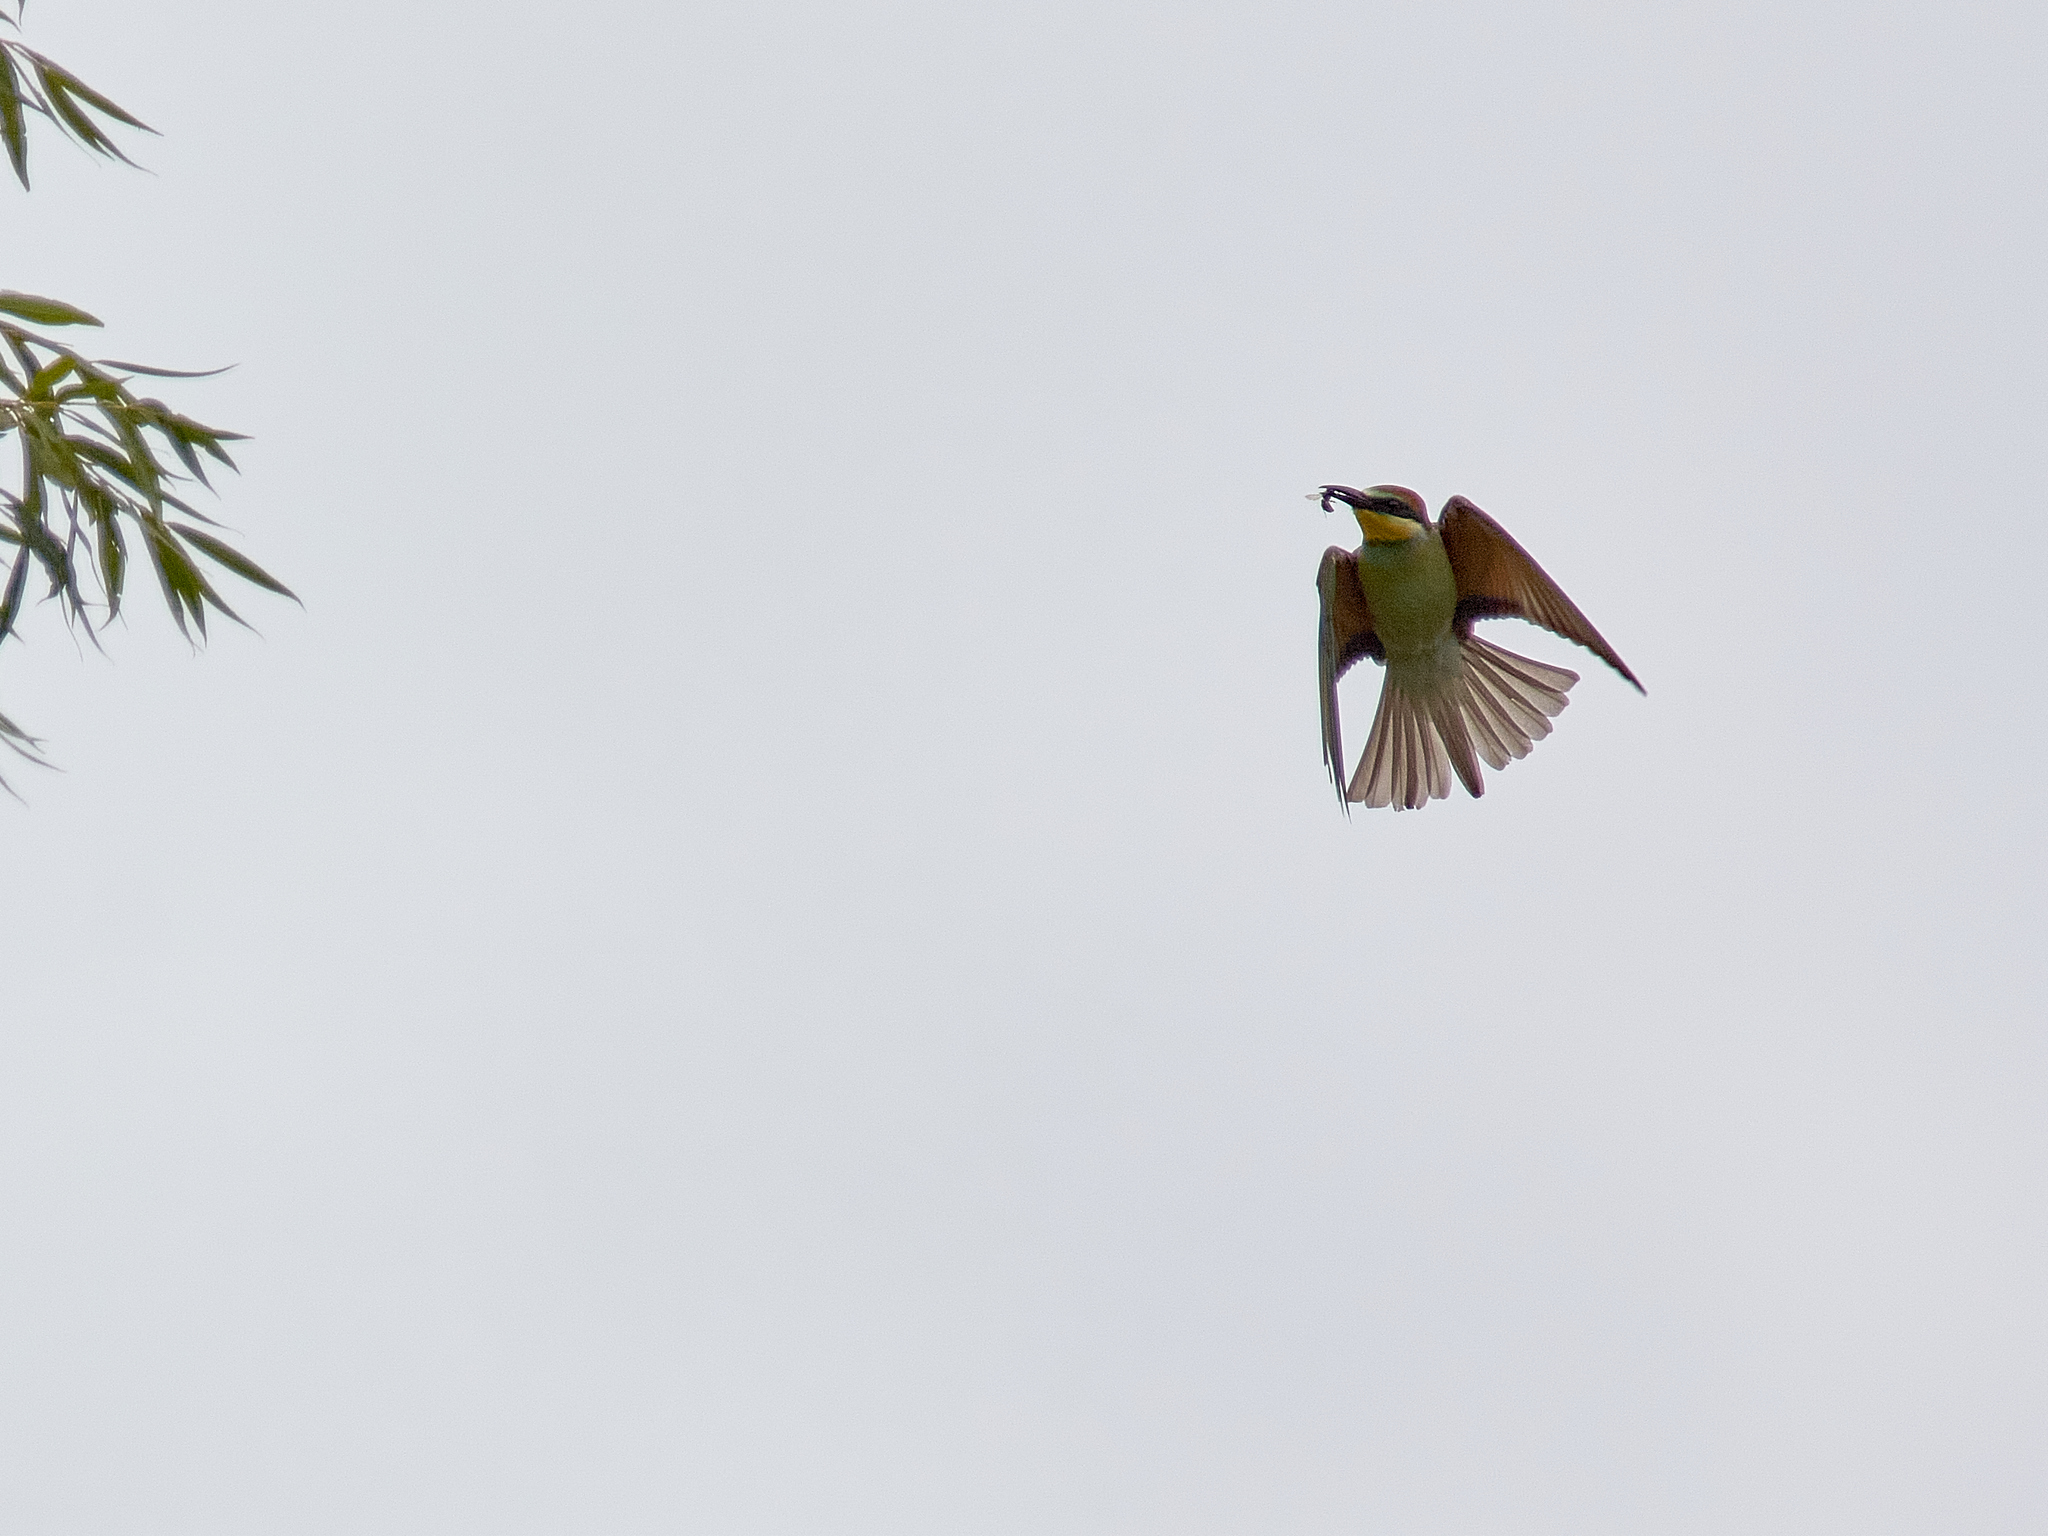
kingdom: Animalia
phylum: Chordata
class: Aves
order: Coraciiformes
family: Meropidae
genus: Merops
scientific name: Merops apiaster
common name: European bee-eater
